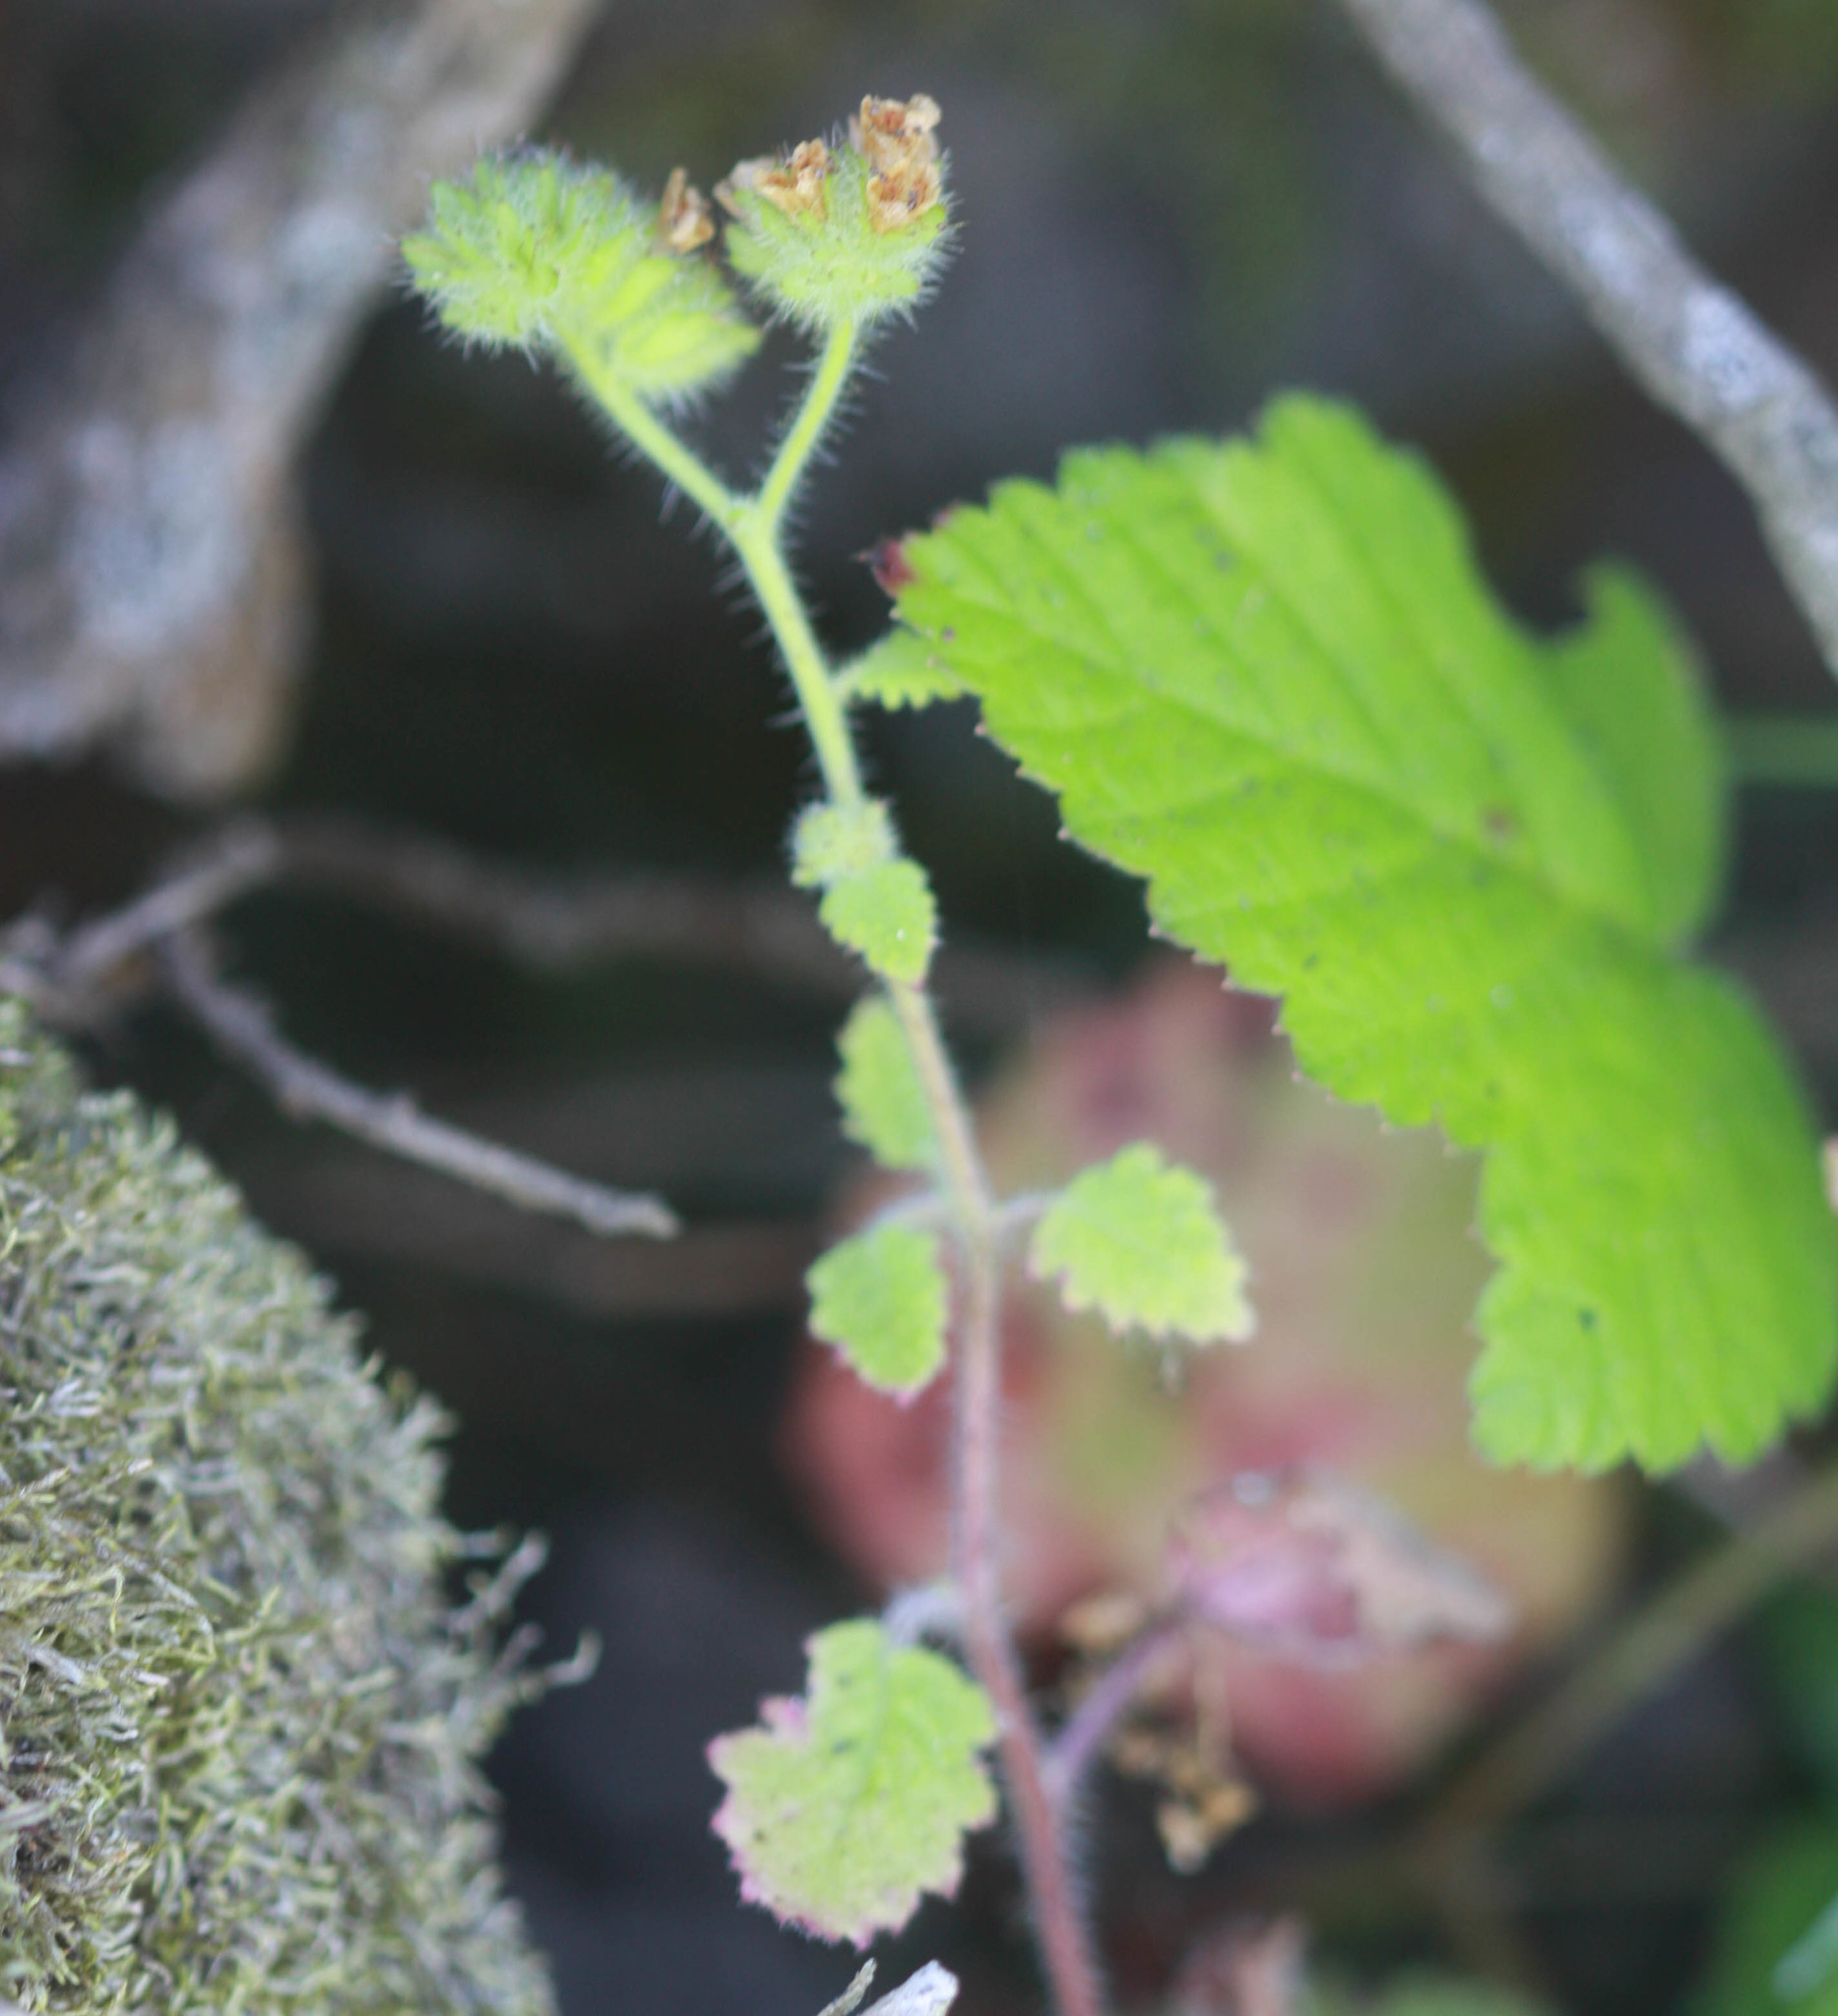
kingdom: Plantae
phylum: Tracheophyta
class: Magnoliopsida
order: Boraginales
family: Hydrophyllaceae
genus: Phacelia
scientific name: Phacelia malvifolia
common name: Mallow-leaf phacelia
